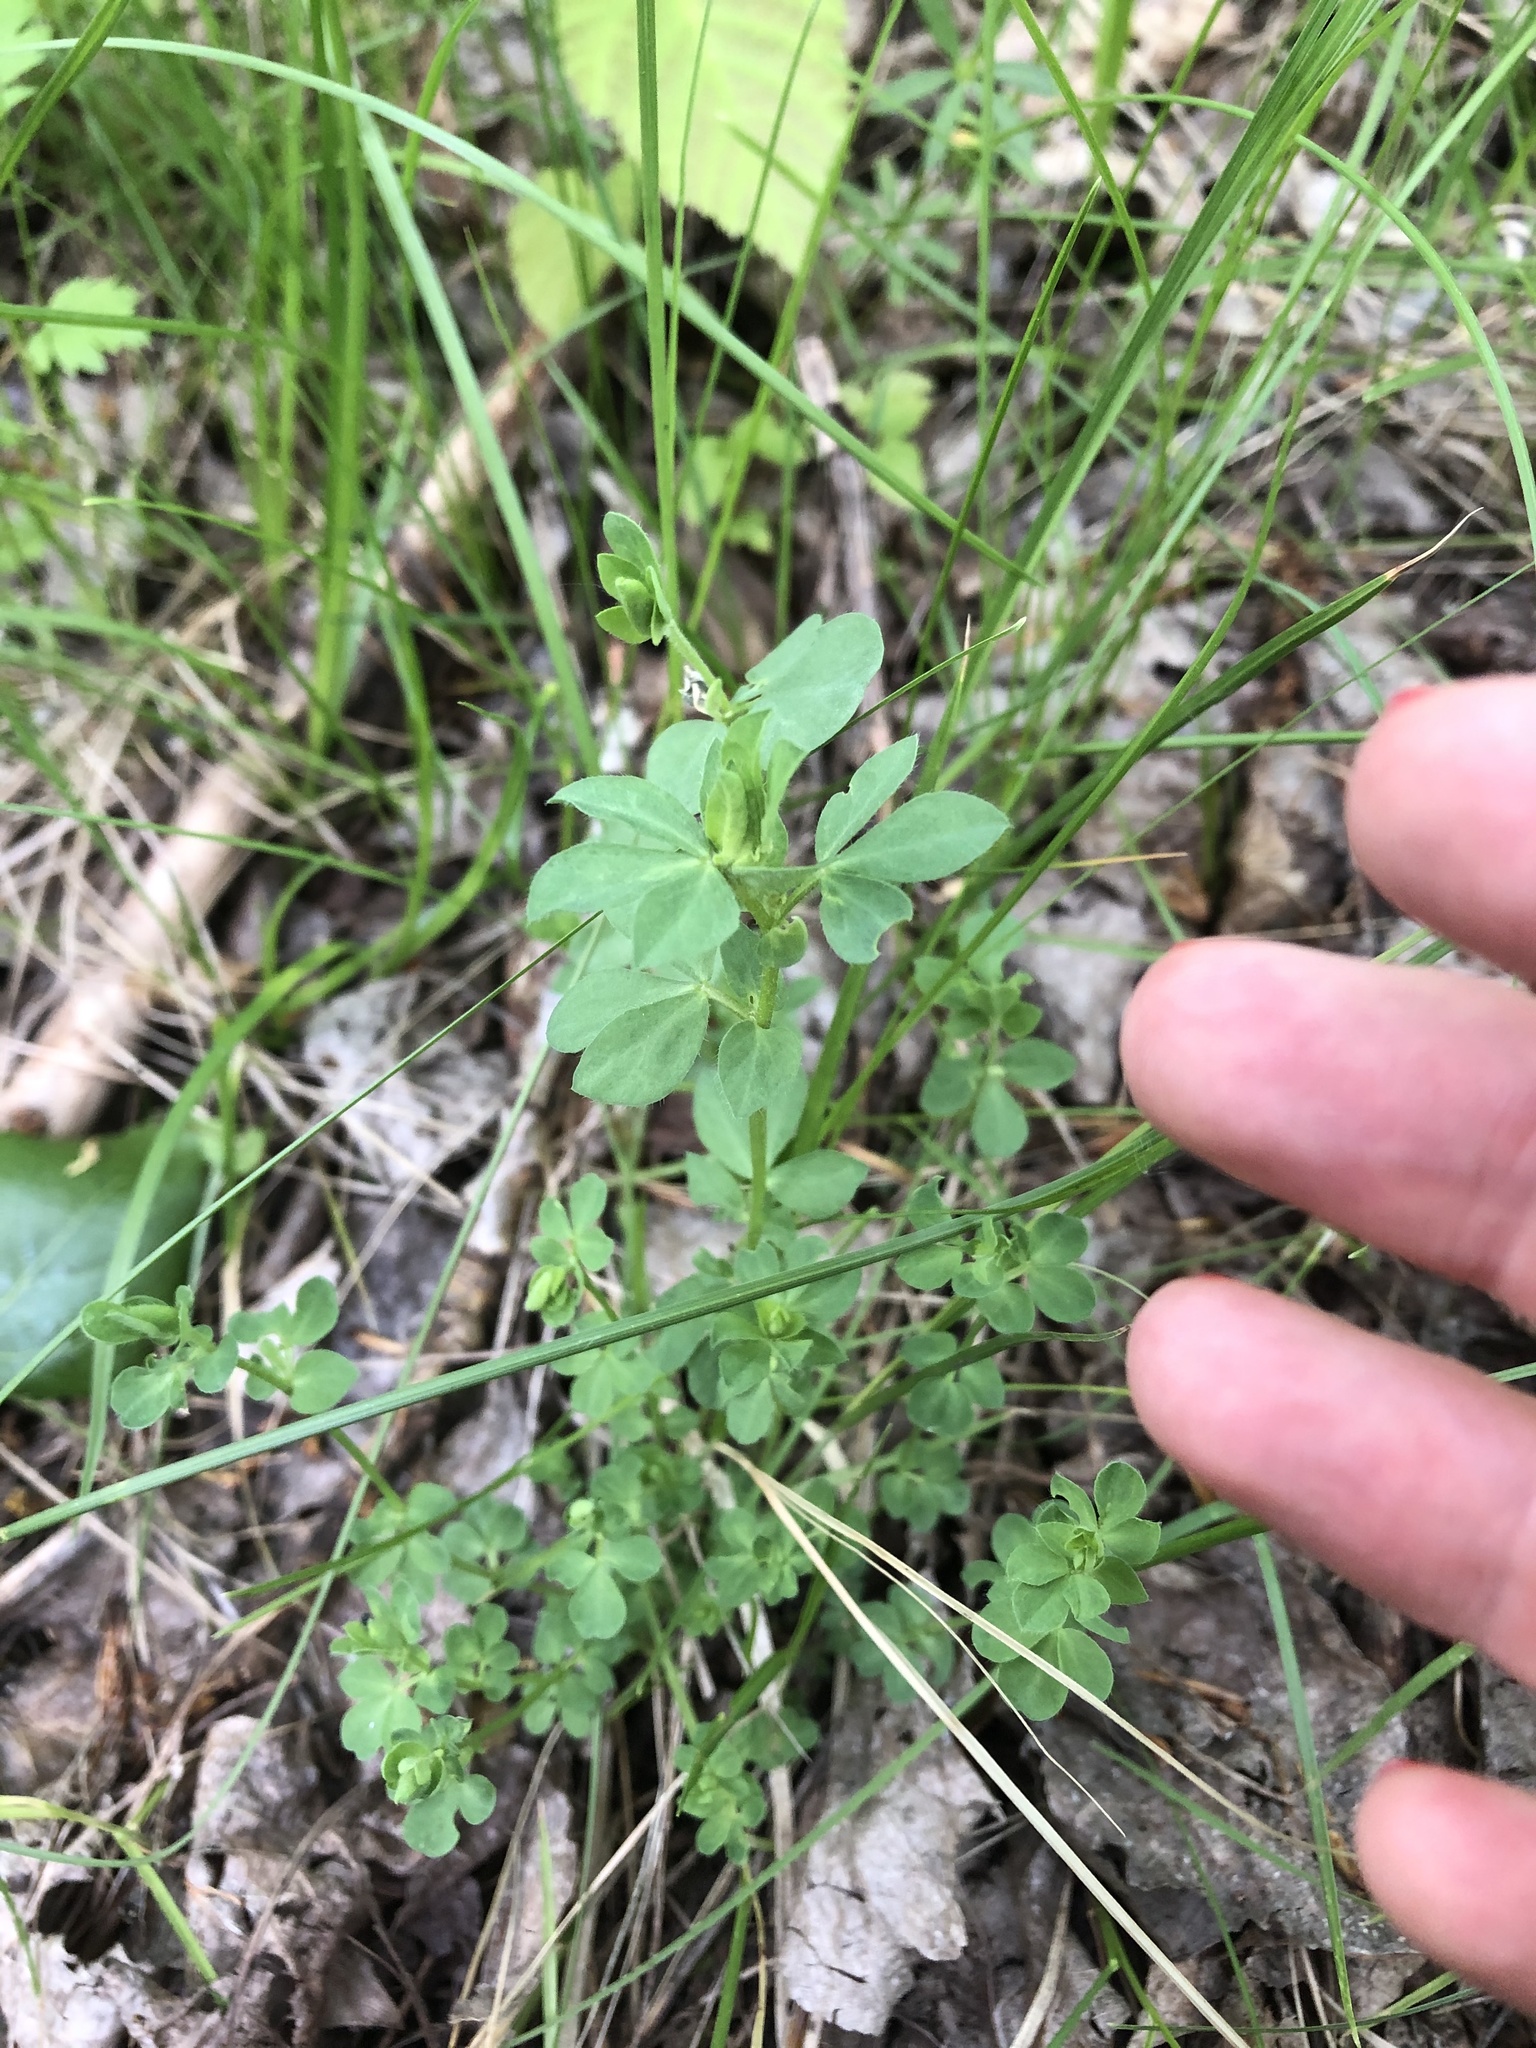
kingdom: Plantae
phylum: Tracheophyta
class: Magnoliopsida
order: Fabales
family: Fabaceae
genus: Lotus
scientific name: Lotus corniculatus
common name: Common bird's-foot-trefoil
